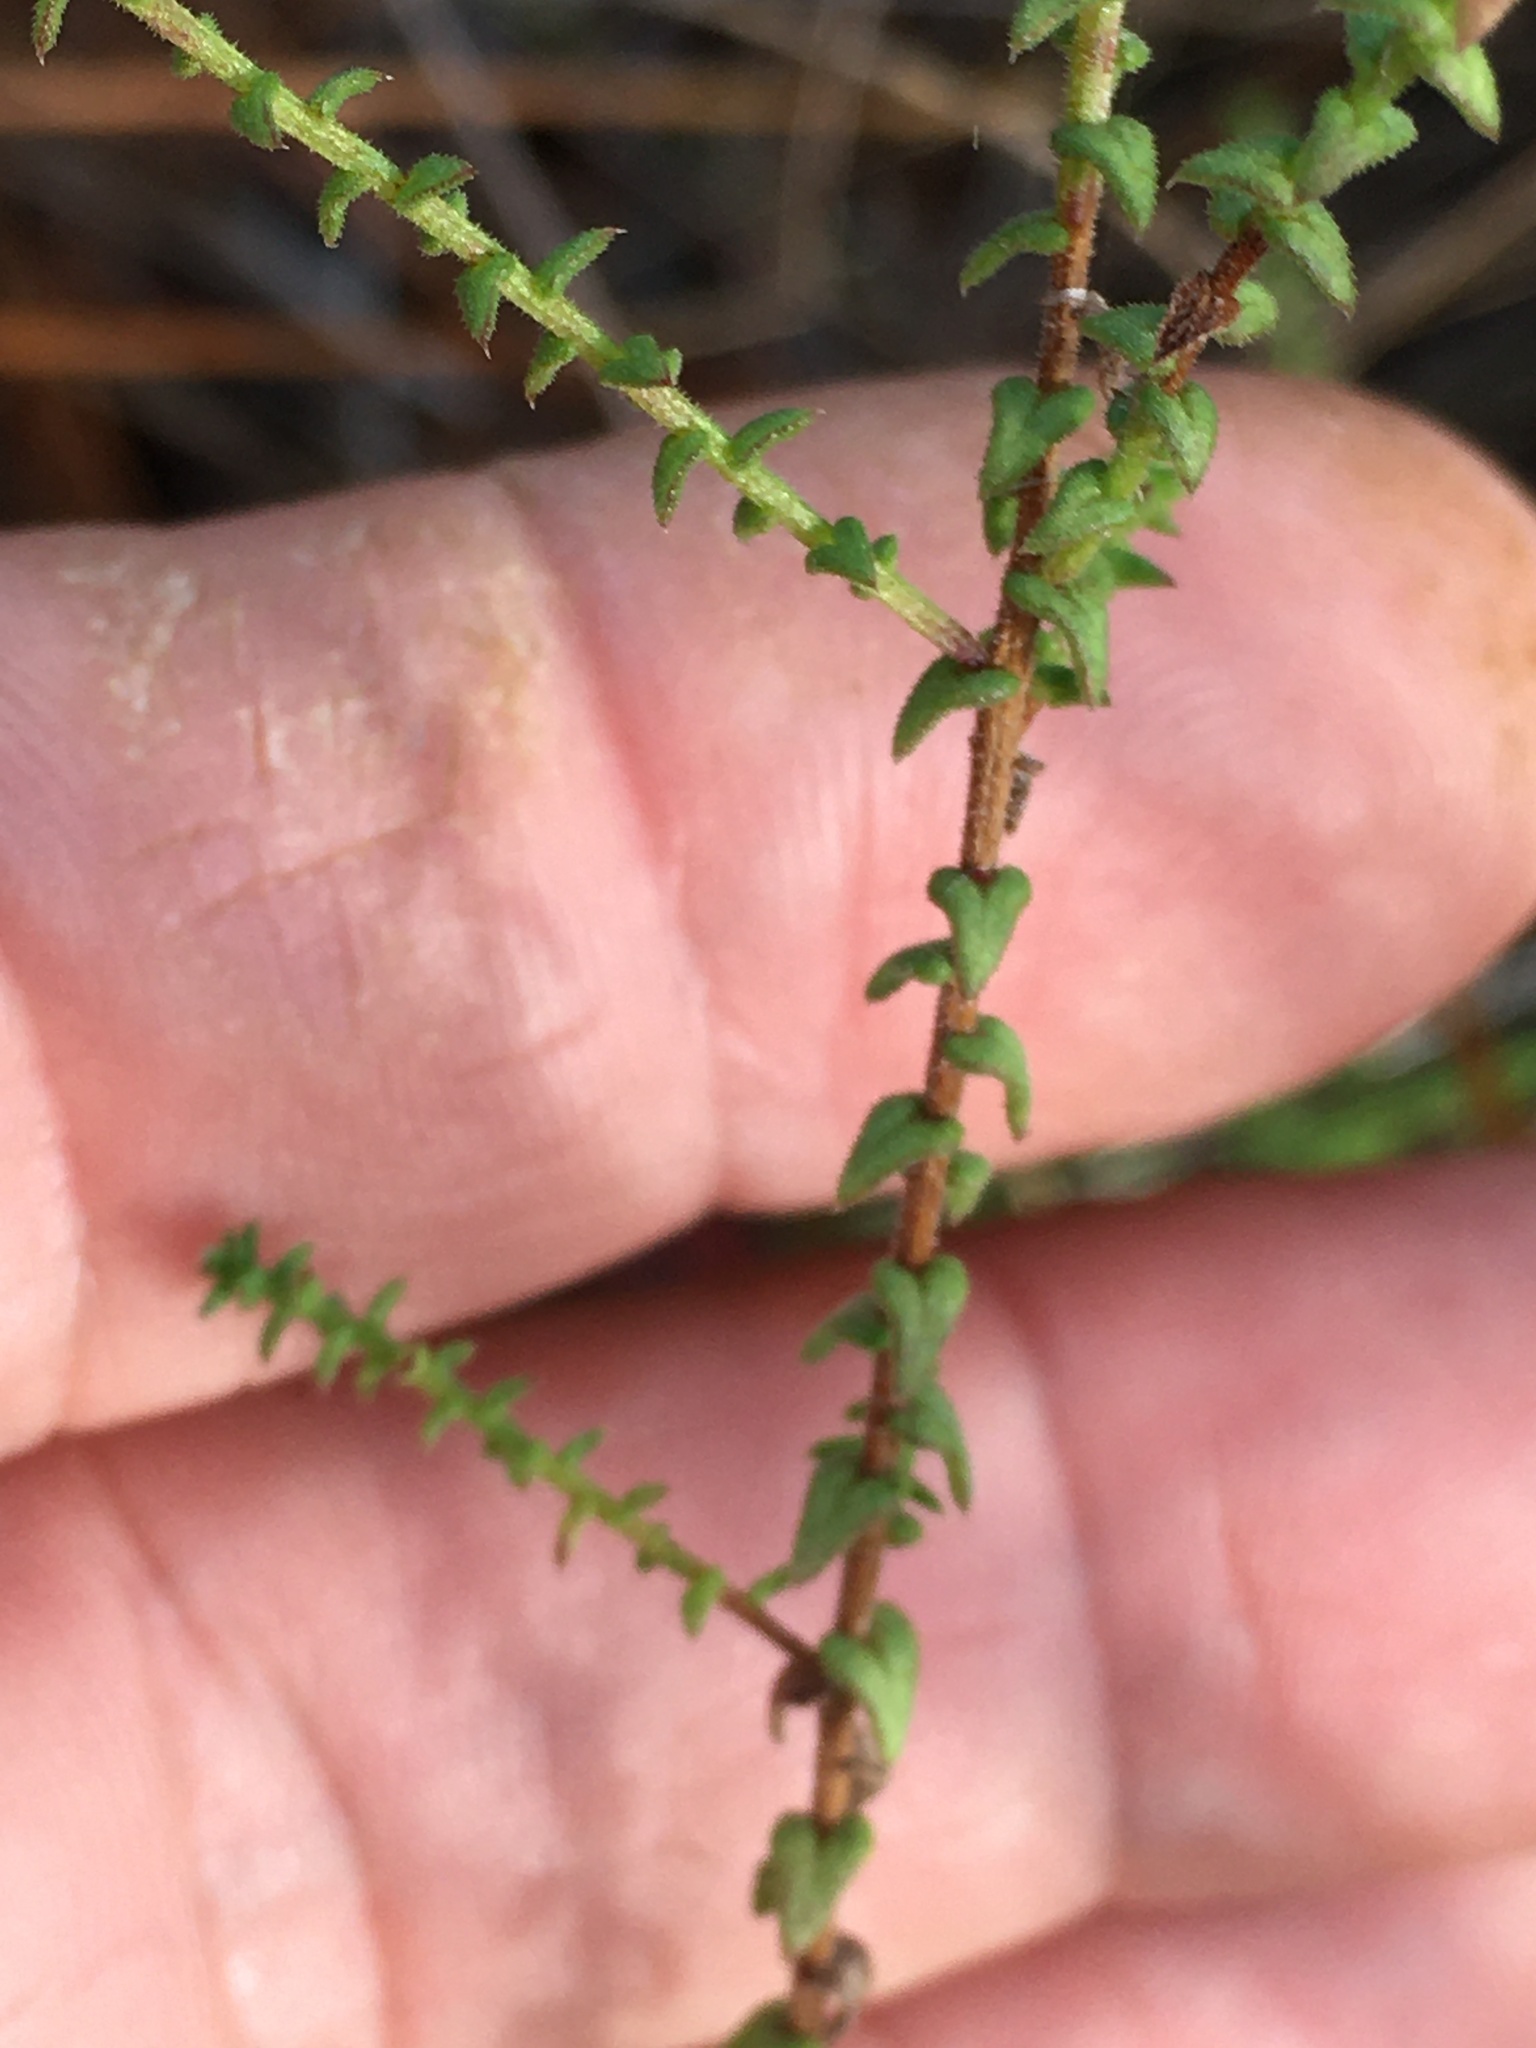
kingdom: Plantae
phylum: Tracheophyta
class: Magnoliopsida
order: Asterales
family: Asteraceae
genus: Symphyotrichum
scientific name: Symphyotrichum walteri
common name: Walter's aster
